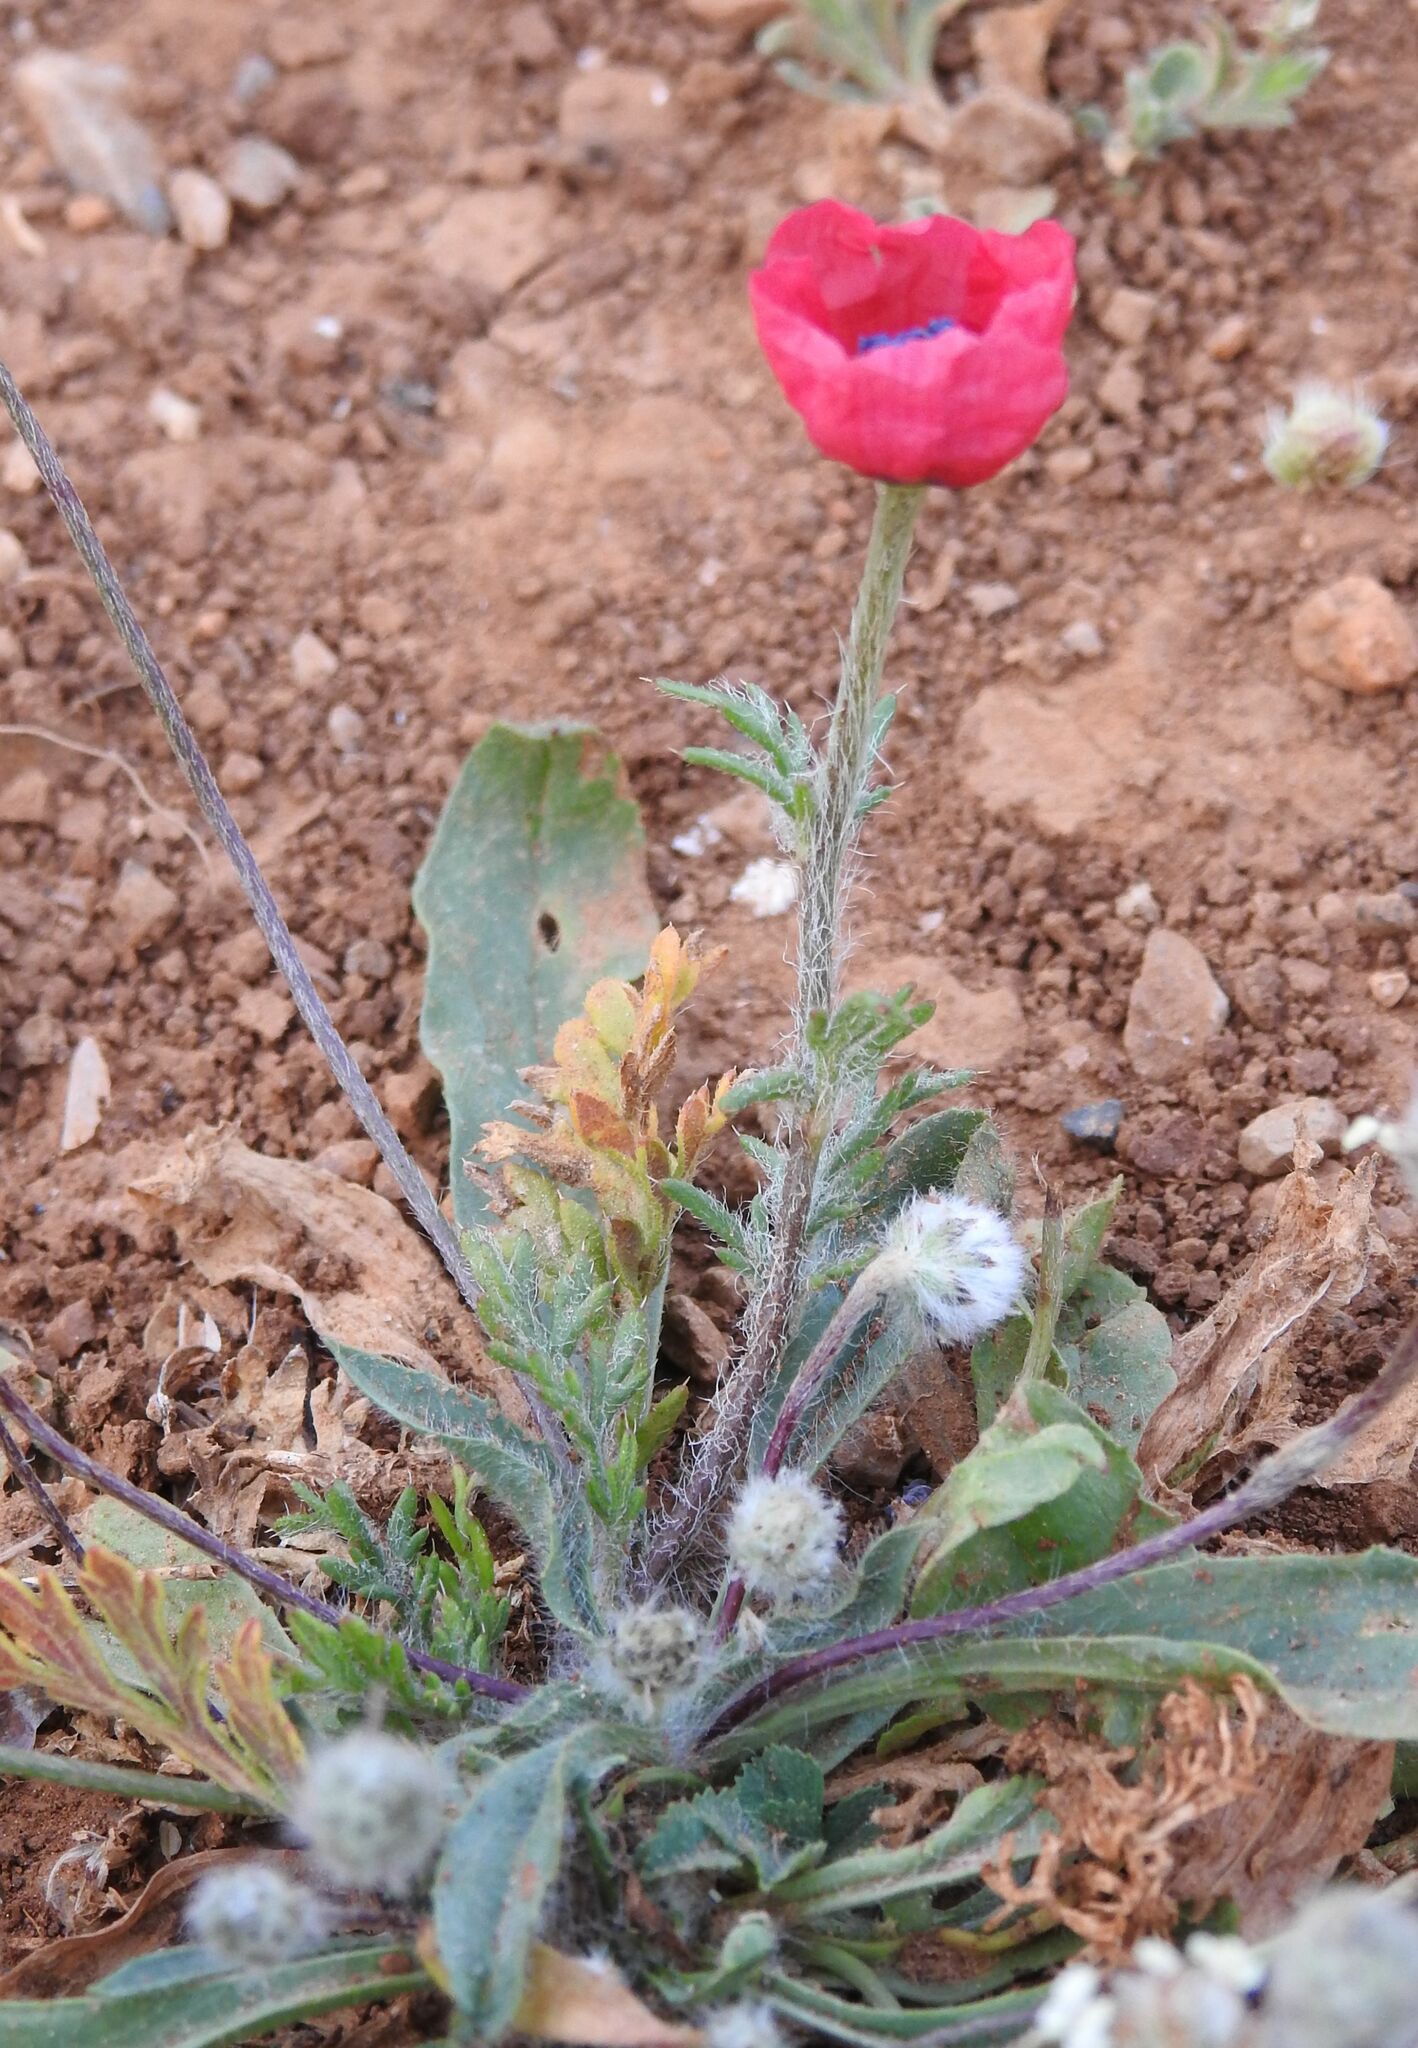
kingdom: Plantae
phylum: Tracheophyta
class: Magnoliopsida
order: Ranunculales
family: Papaveraceae
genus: Roemeria
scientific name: Roemeria hispida
